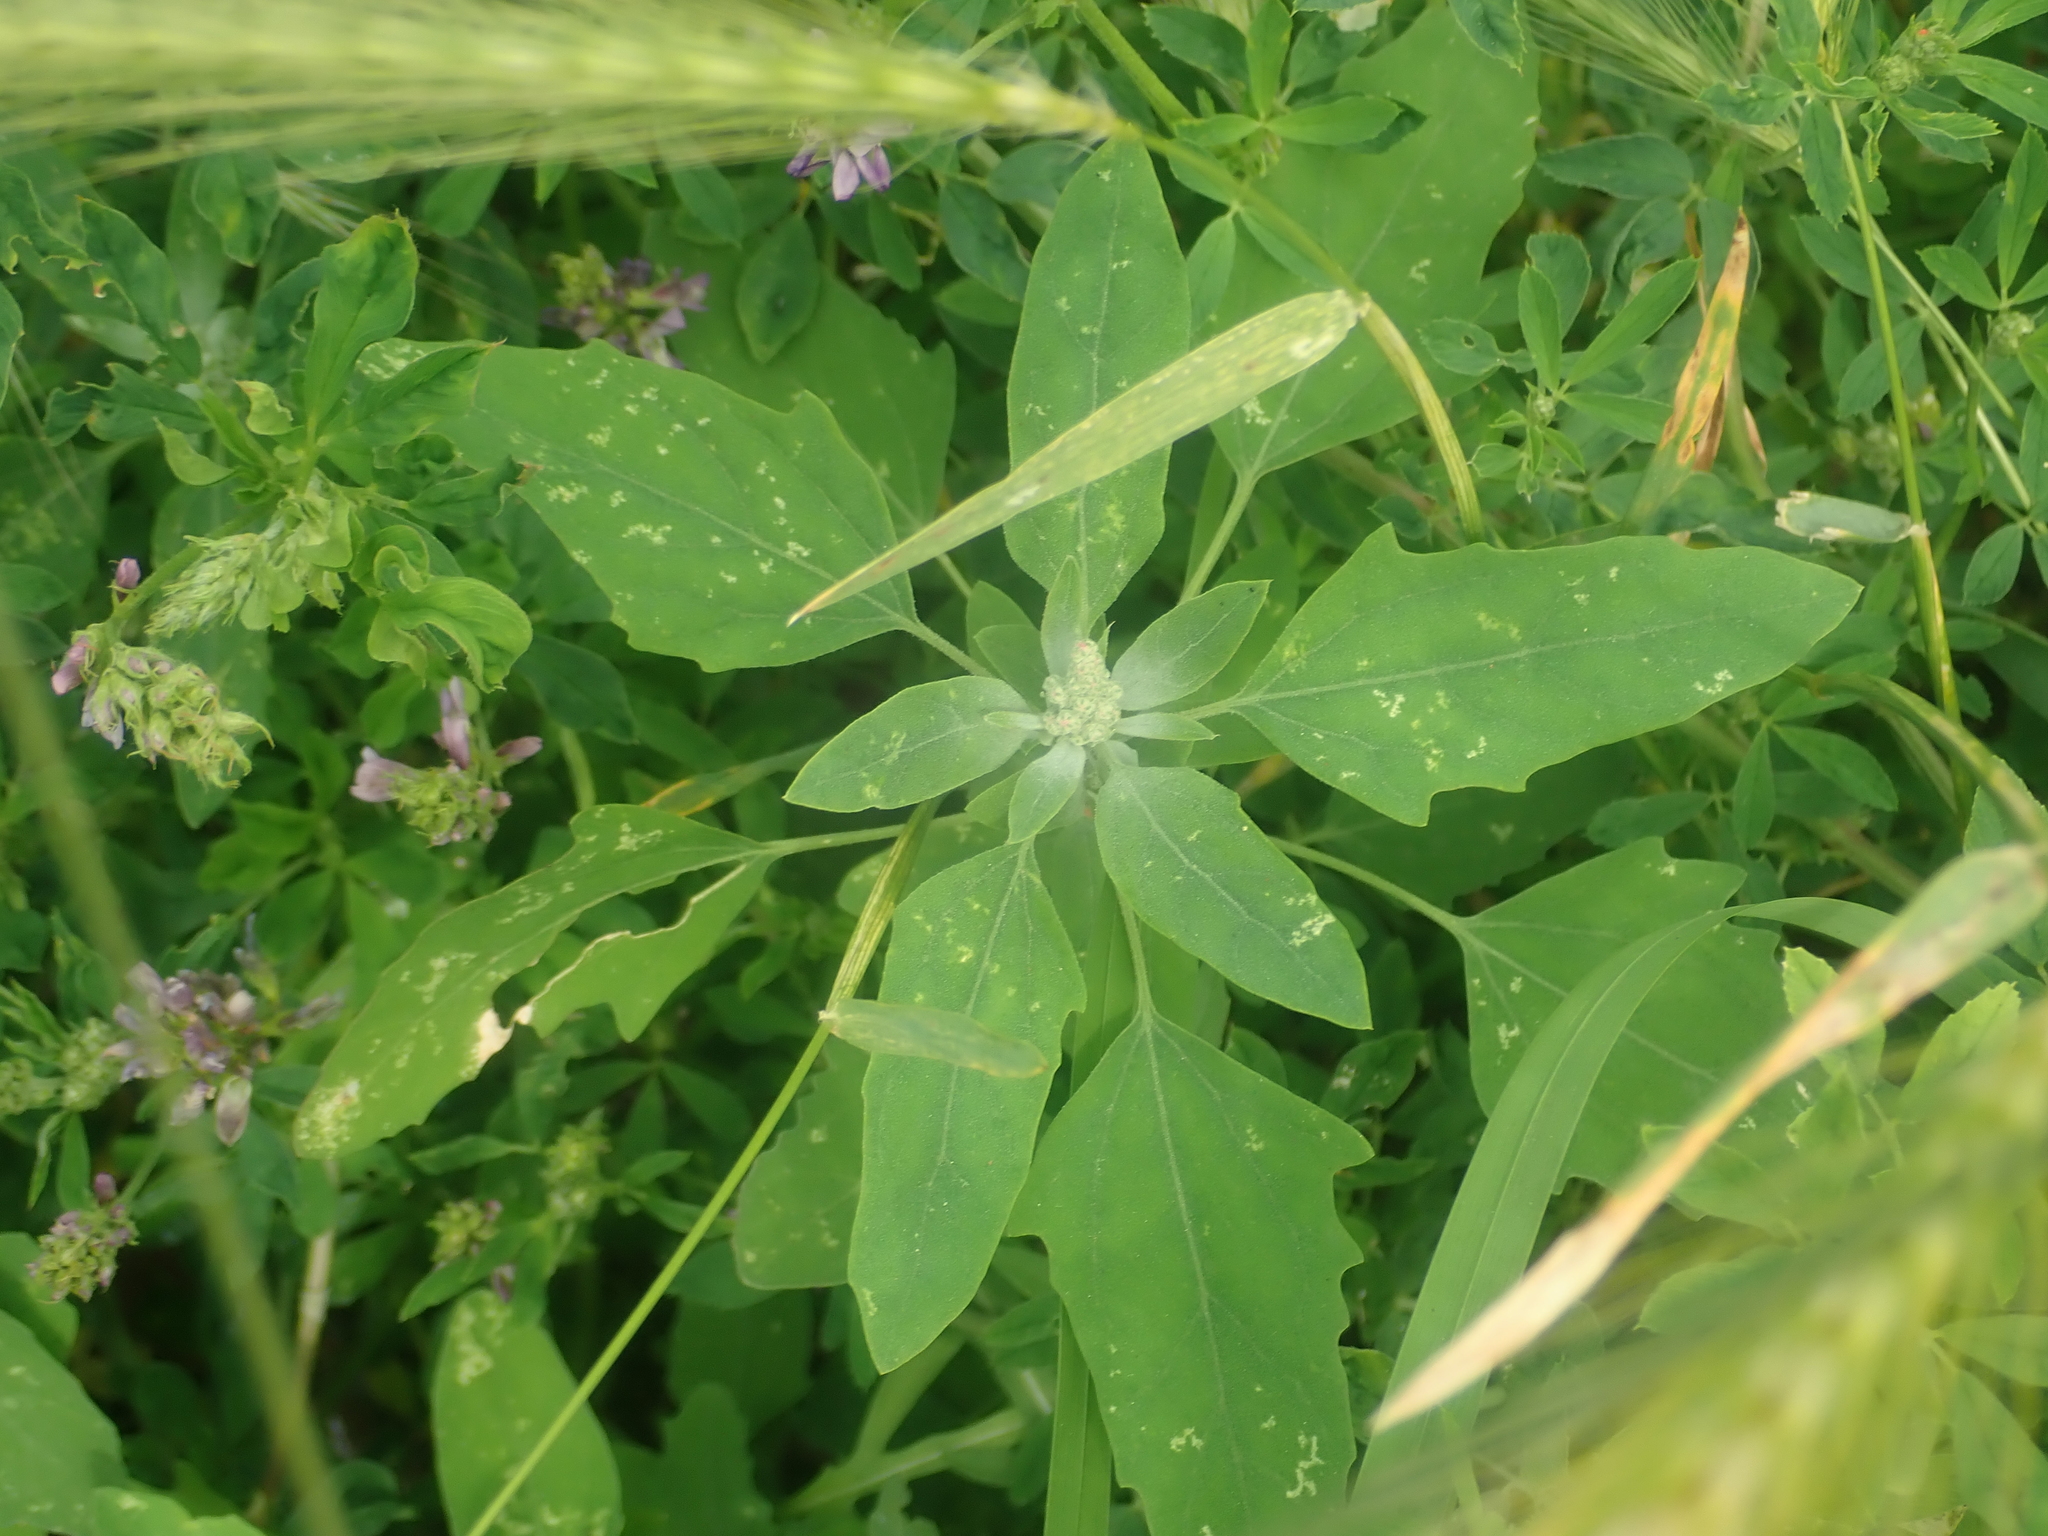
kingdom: Plantae
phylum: Tracheophyta
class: Magnoliopsida
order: Caryophyllales
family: Amaranthaceae
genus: Chenopodium
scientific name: Chenopodium album
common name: Fat-hen
